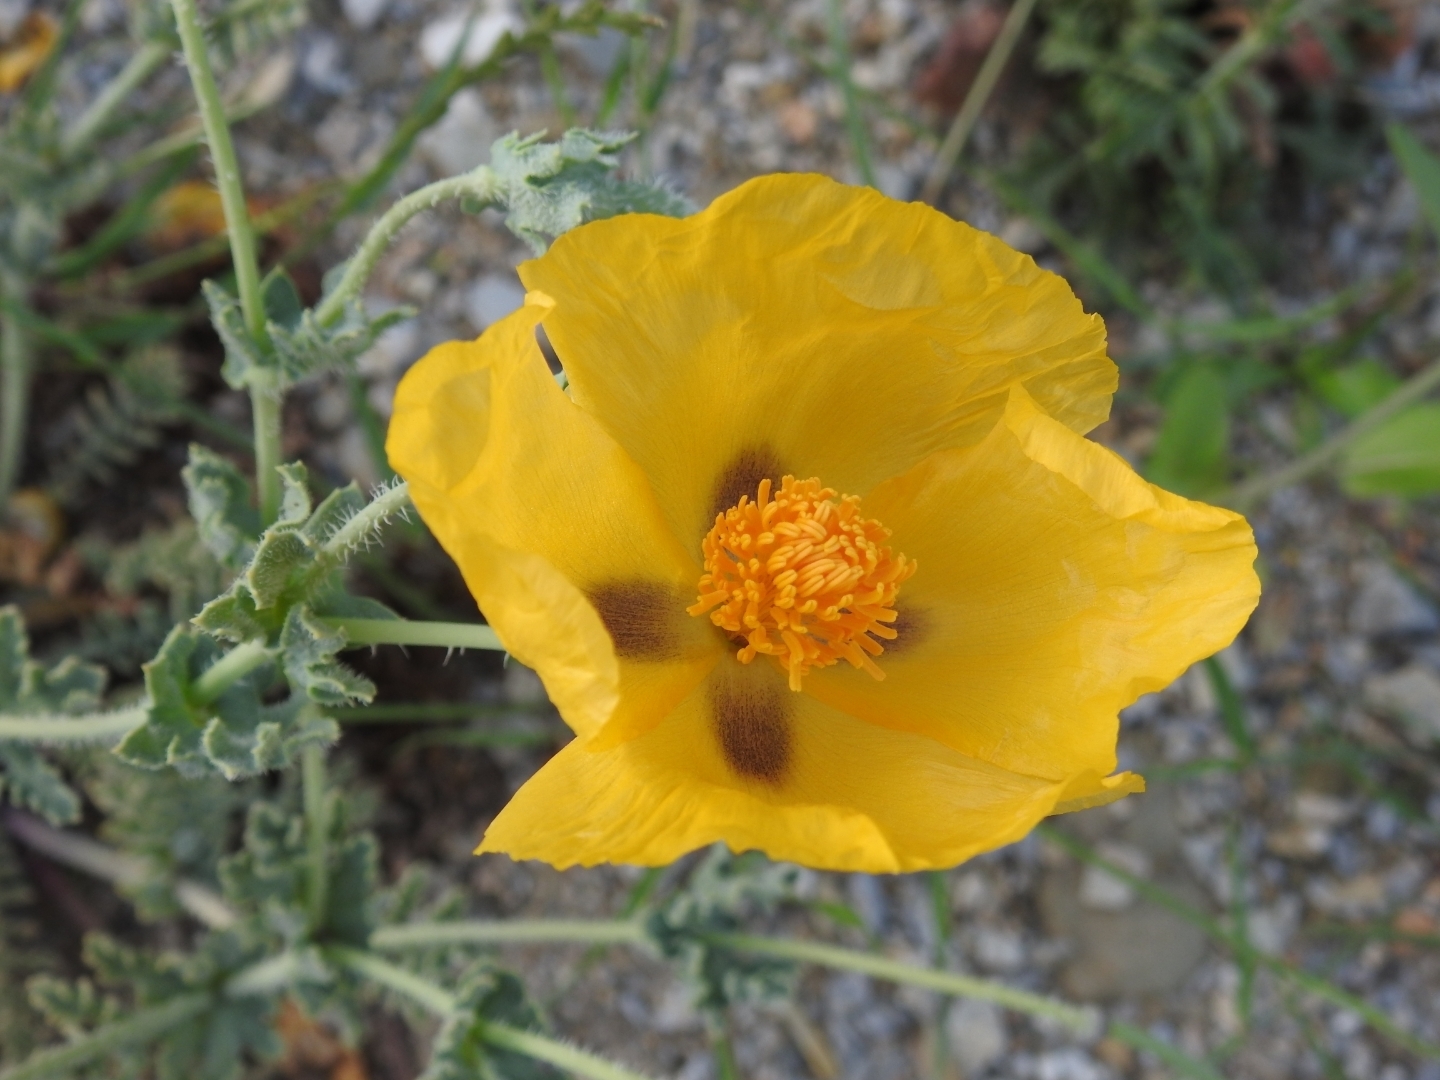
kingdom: Plantae
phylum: Tracheophyta
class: Magnoliopsida
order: Ranunculales
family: Papaveraceae
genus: Glaucium
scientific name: Glaucium flavum
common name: Yellow horned-poppy
